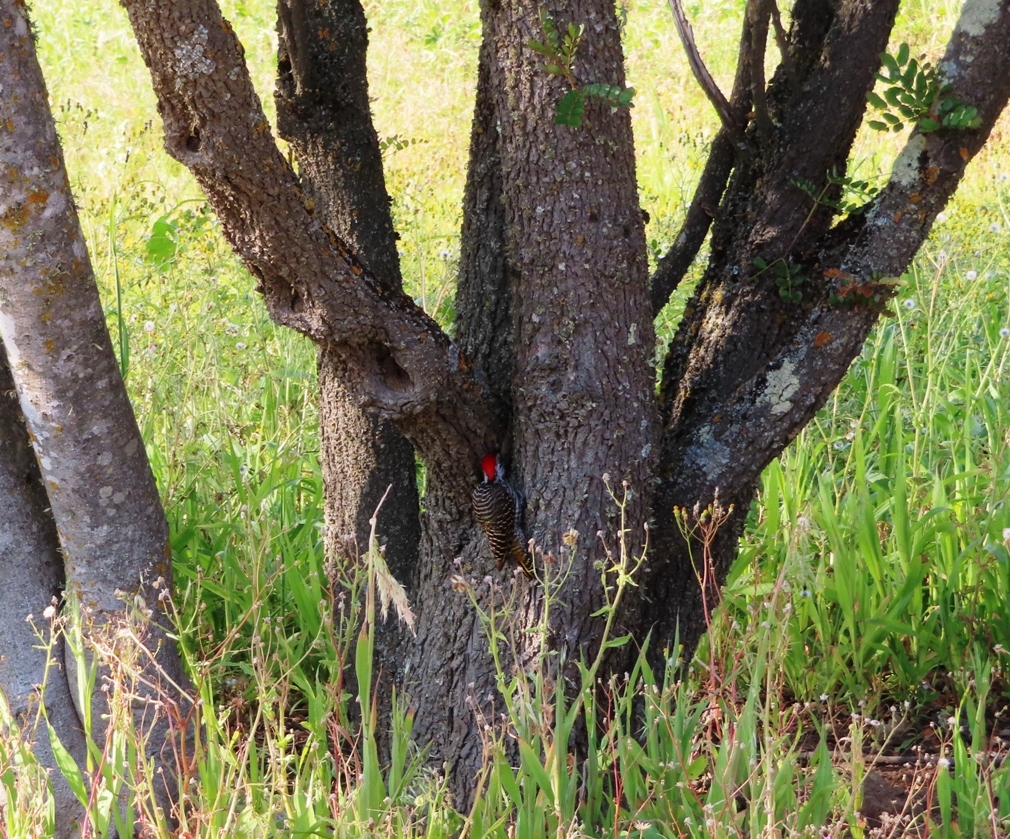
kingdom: Animalia
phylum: Chordata
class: Aves
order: Piciformes
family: Picidae
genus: Dendropicos
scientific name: Dendropicos fuscescens
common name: Cardinal woodpecker
